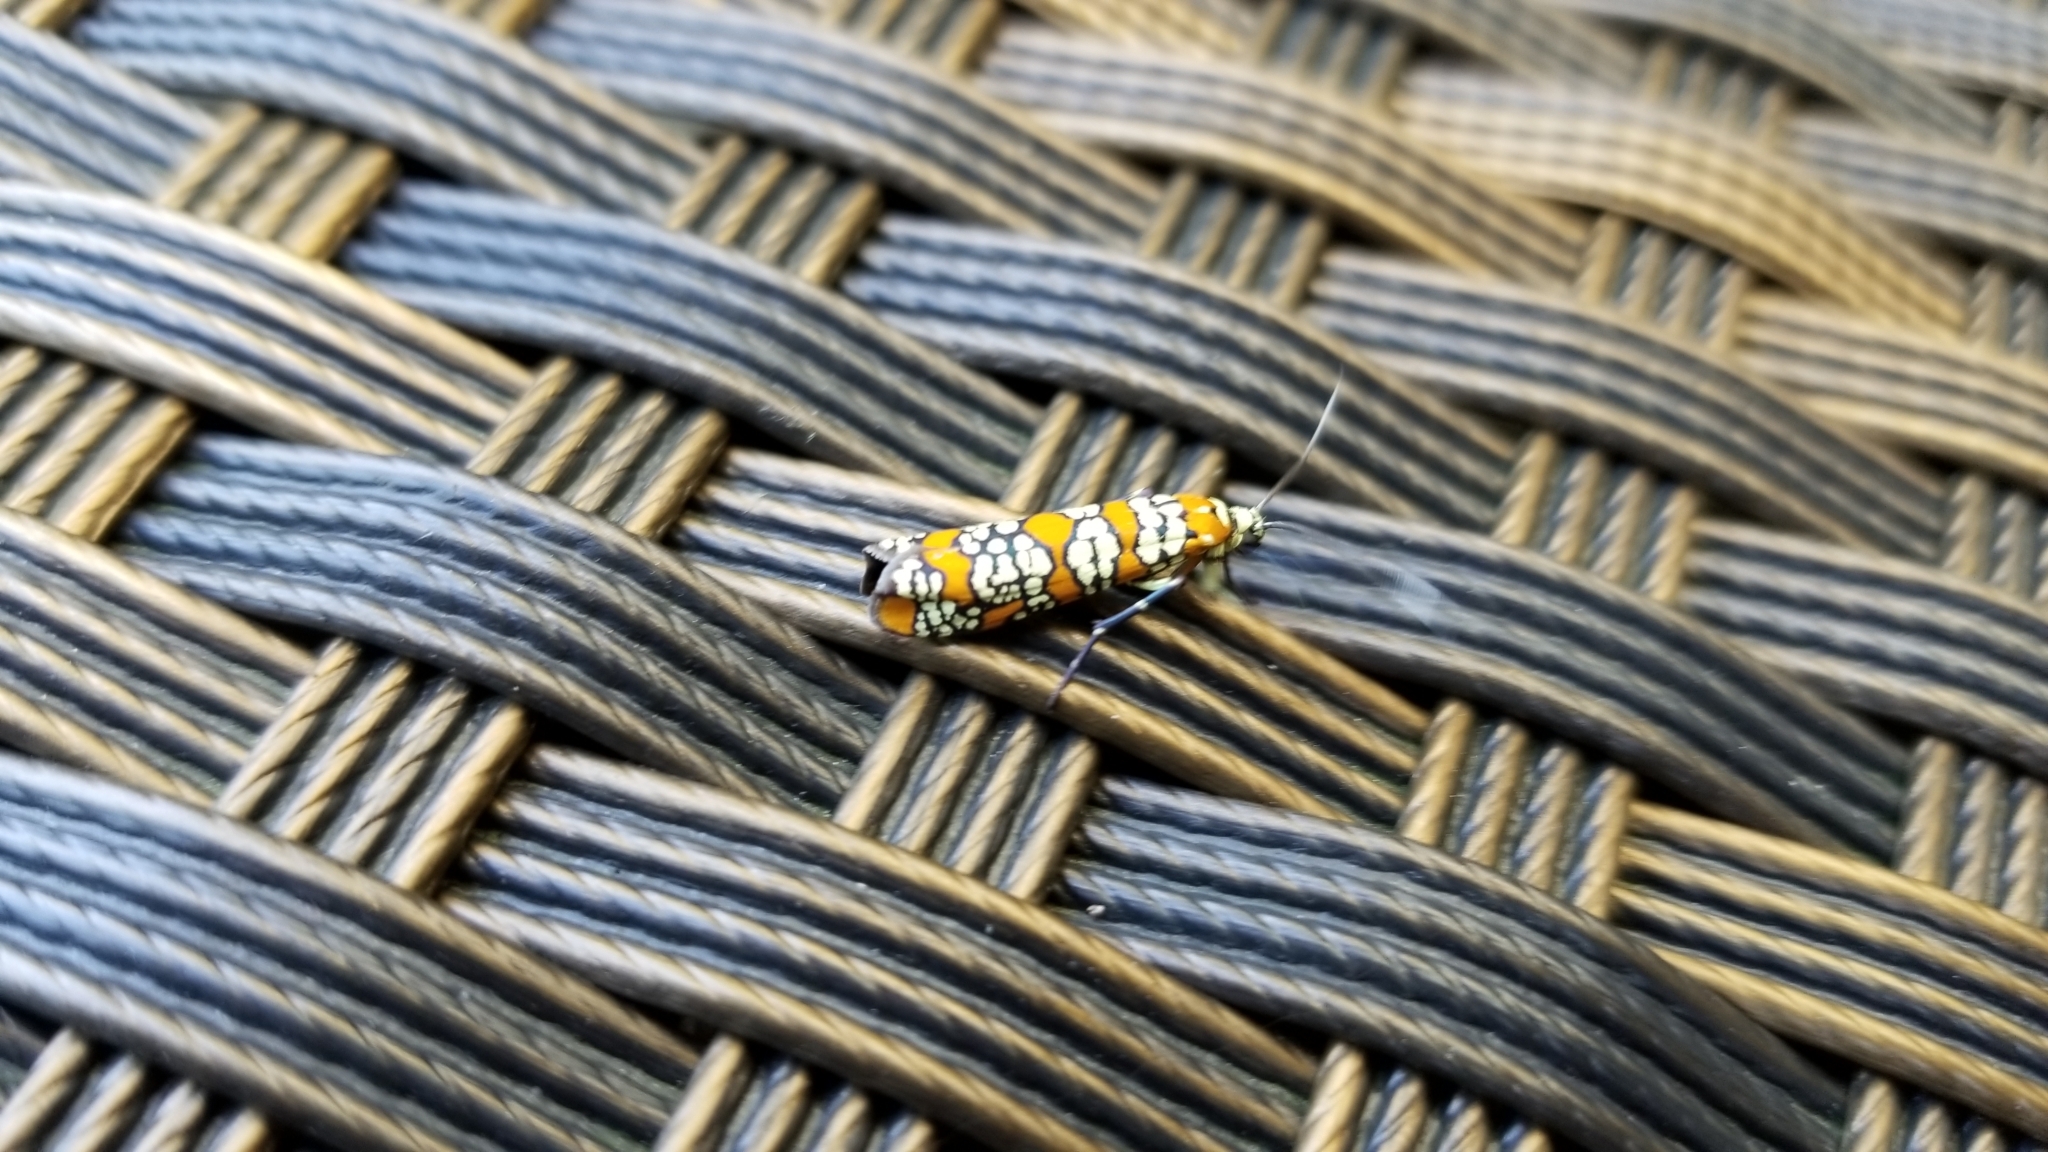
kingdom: Animalia
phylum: Arthropoda
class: Insecta
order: Lepidoptera
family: Attevidae
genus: Atteva
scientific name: Atteva punctella
